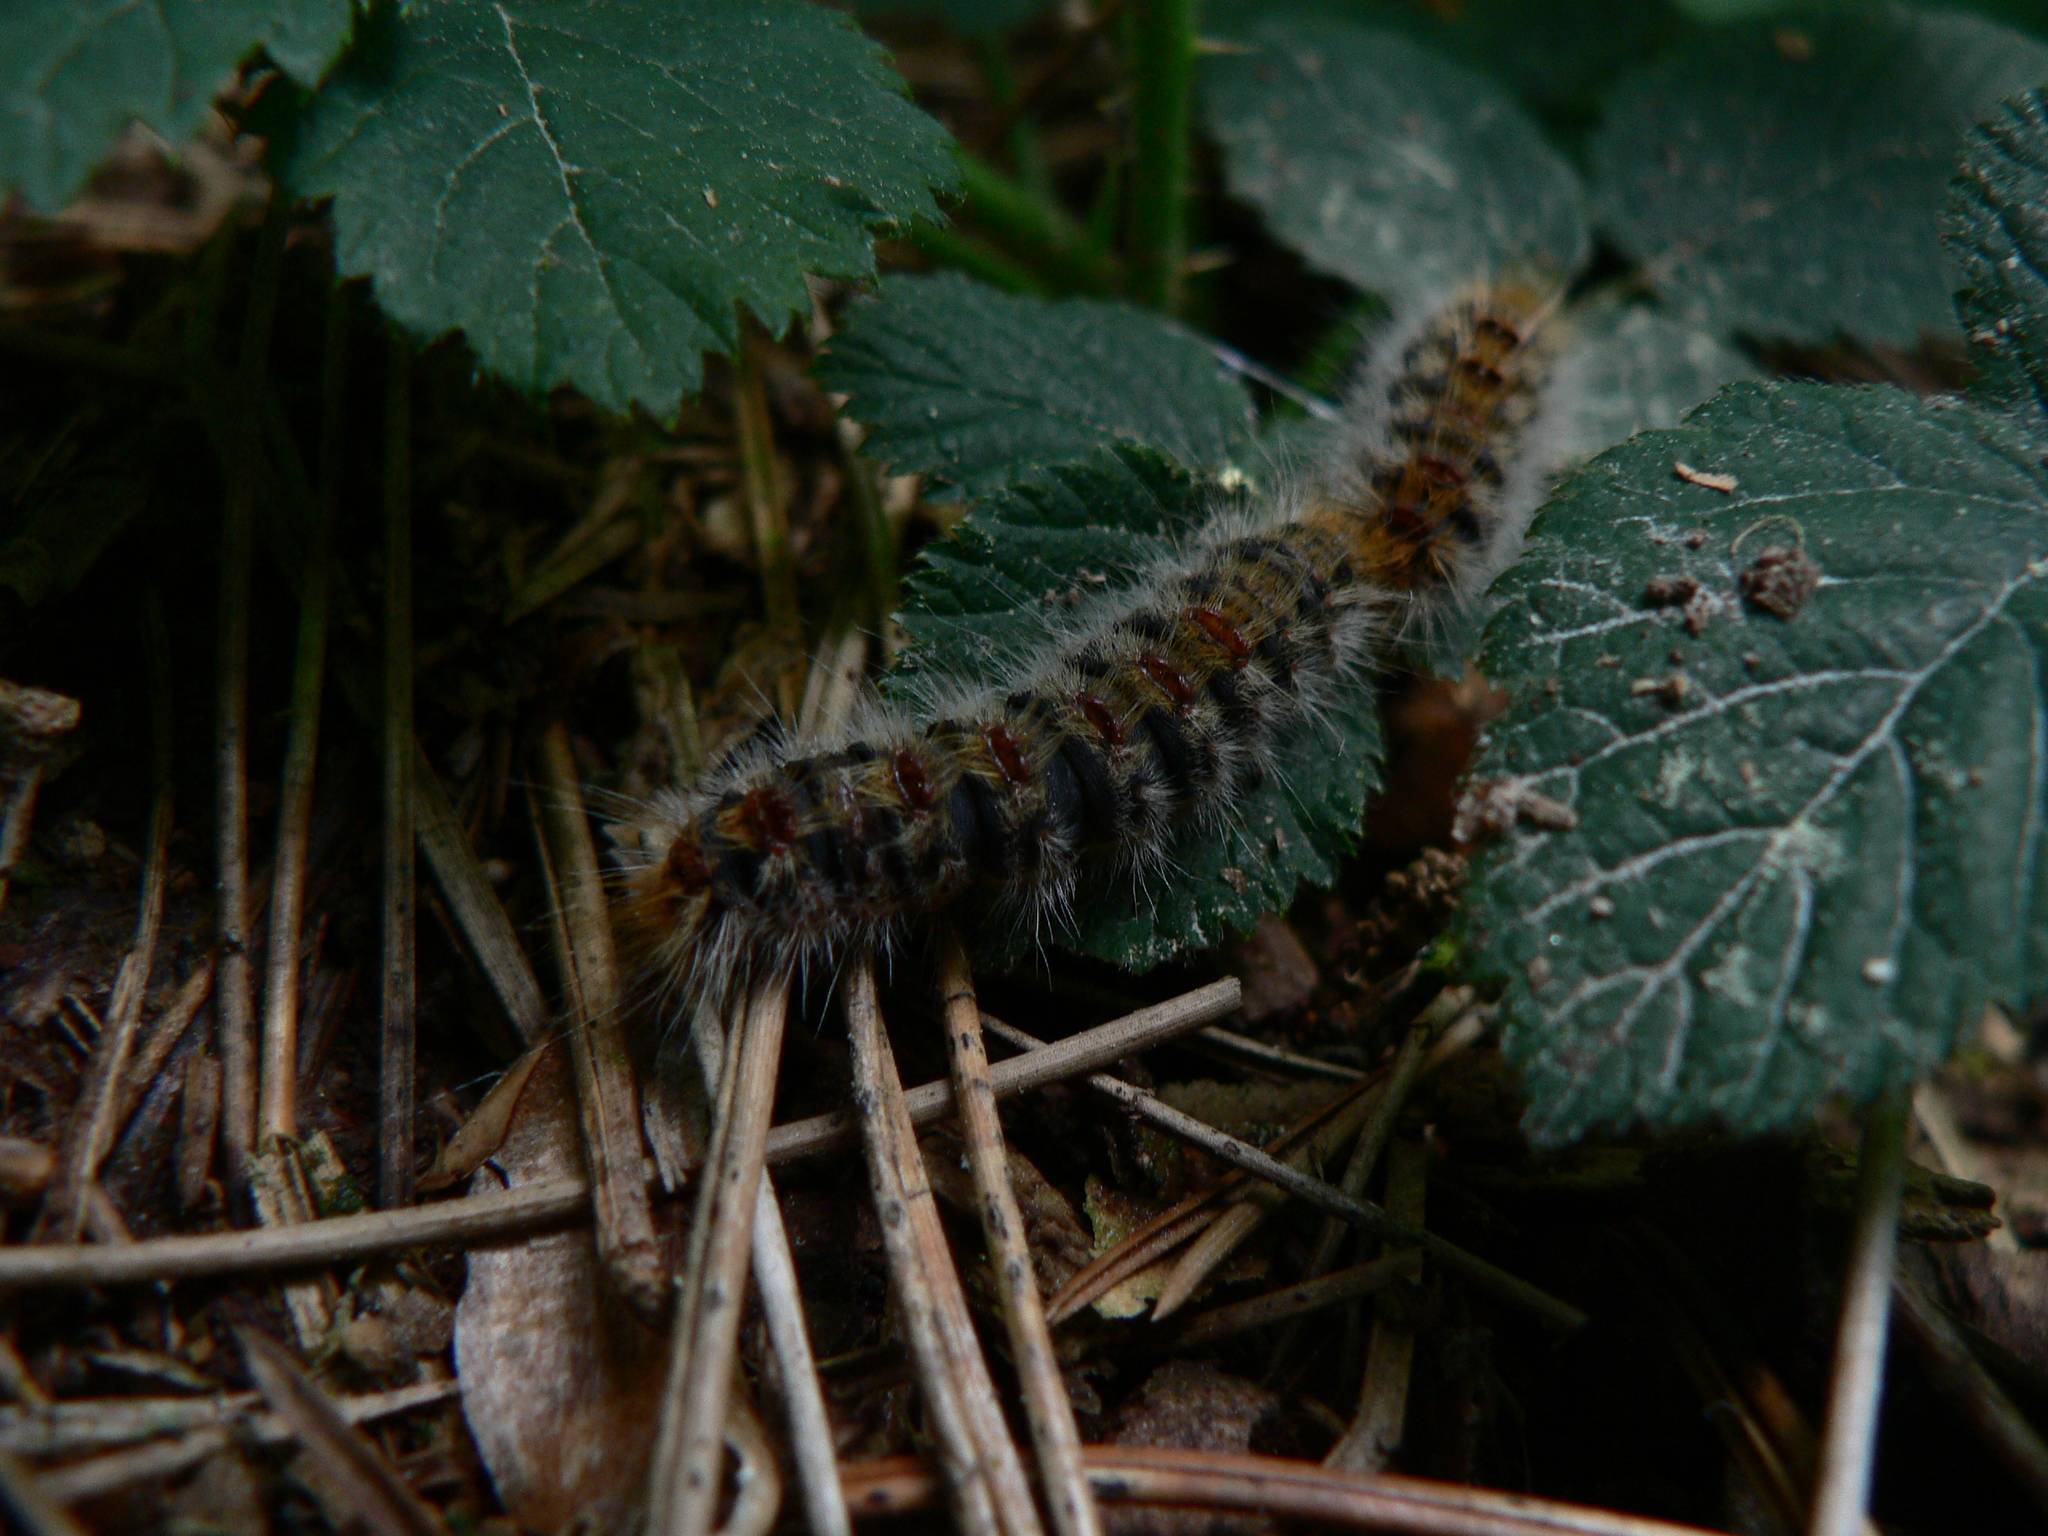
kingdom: Animalia
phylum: Arthropoda
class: Insecta
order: Lepidoptera
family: Notodontidae
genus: Thaumetopoea
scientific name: Thaumetopoea pityocampa
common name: Pine processionary
